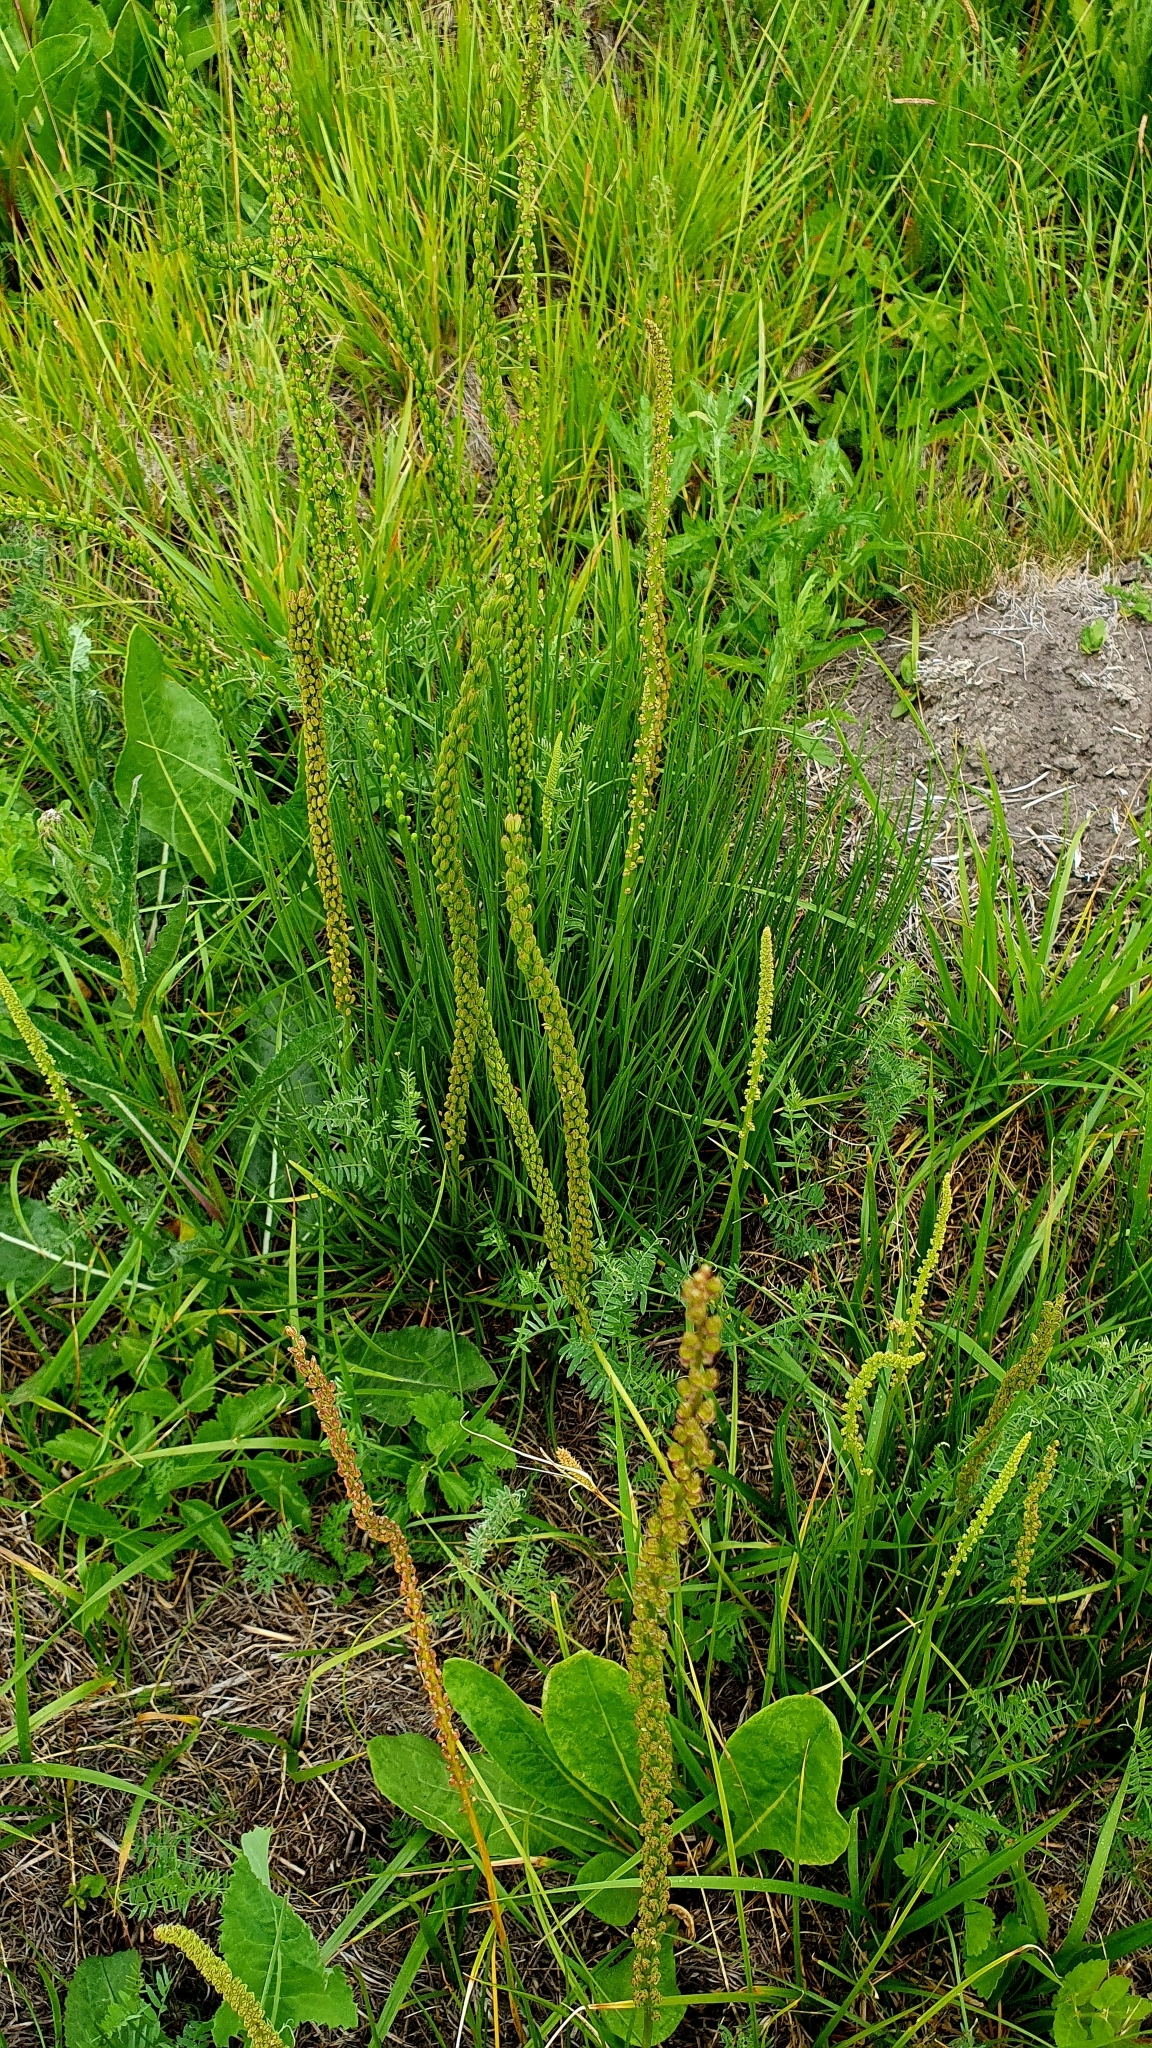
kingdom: Plantae
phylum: Tracheophyta
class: Liliopsida
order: Alismatales
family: Juncaginaceae
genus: Triglochin
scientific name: Triglochin maritima
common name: Sea arrowgrass
